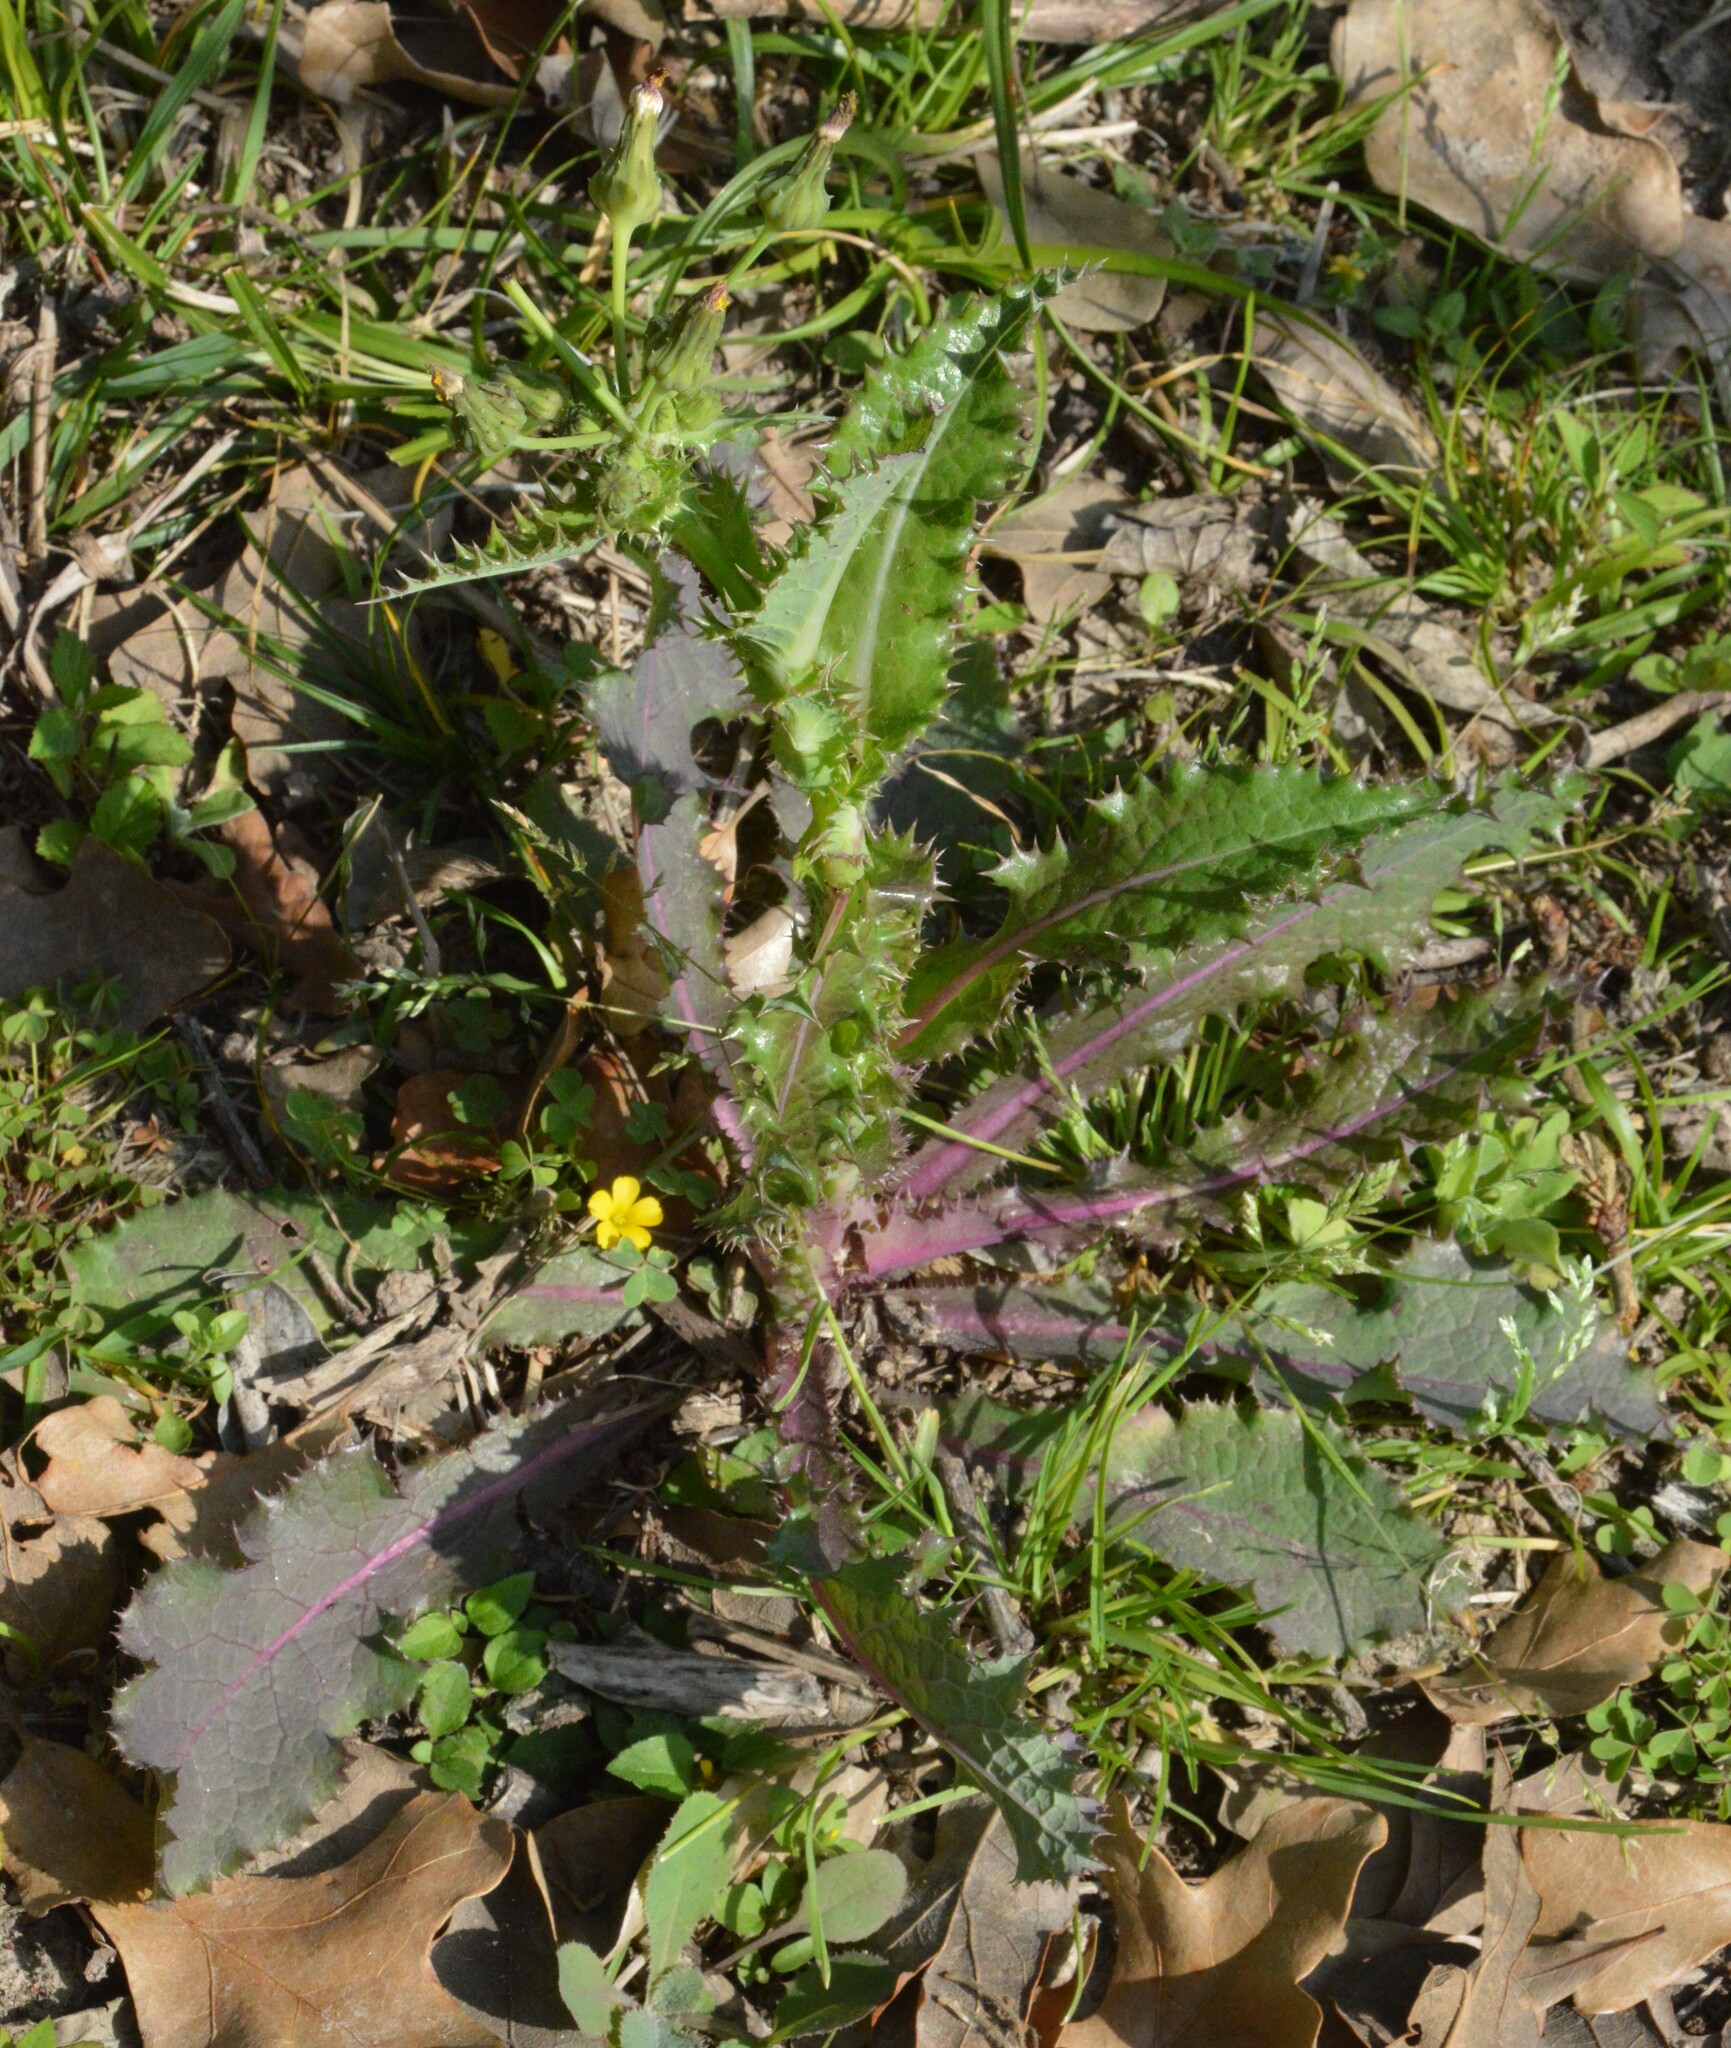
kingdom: Plantae
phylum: Tracheophyta
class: Magnoliopsida
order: Asterales
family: Asteraceae
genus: Sonchus
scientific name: Sonchus asper
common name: Prickly sow-thistle
